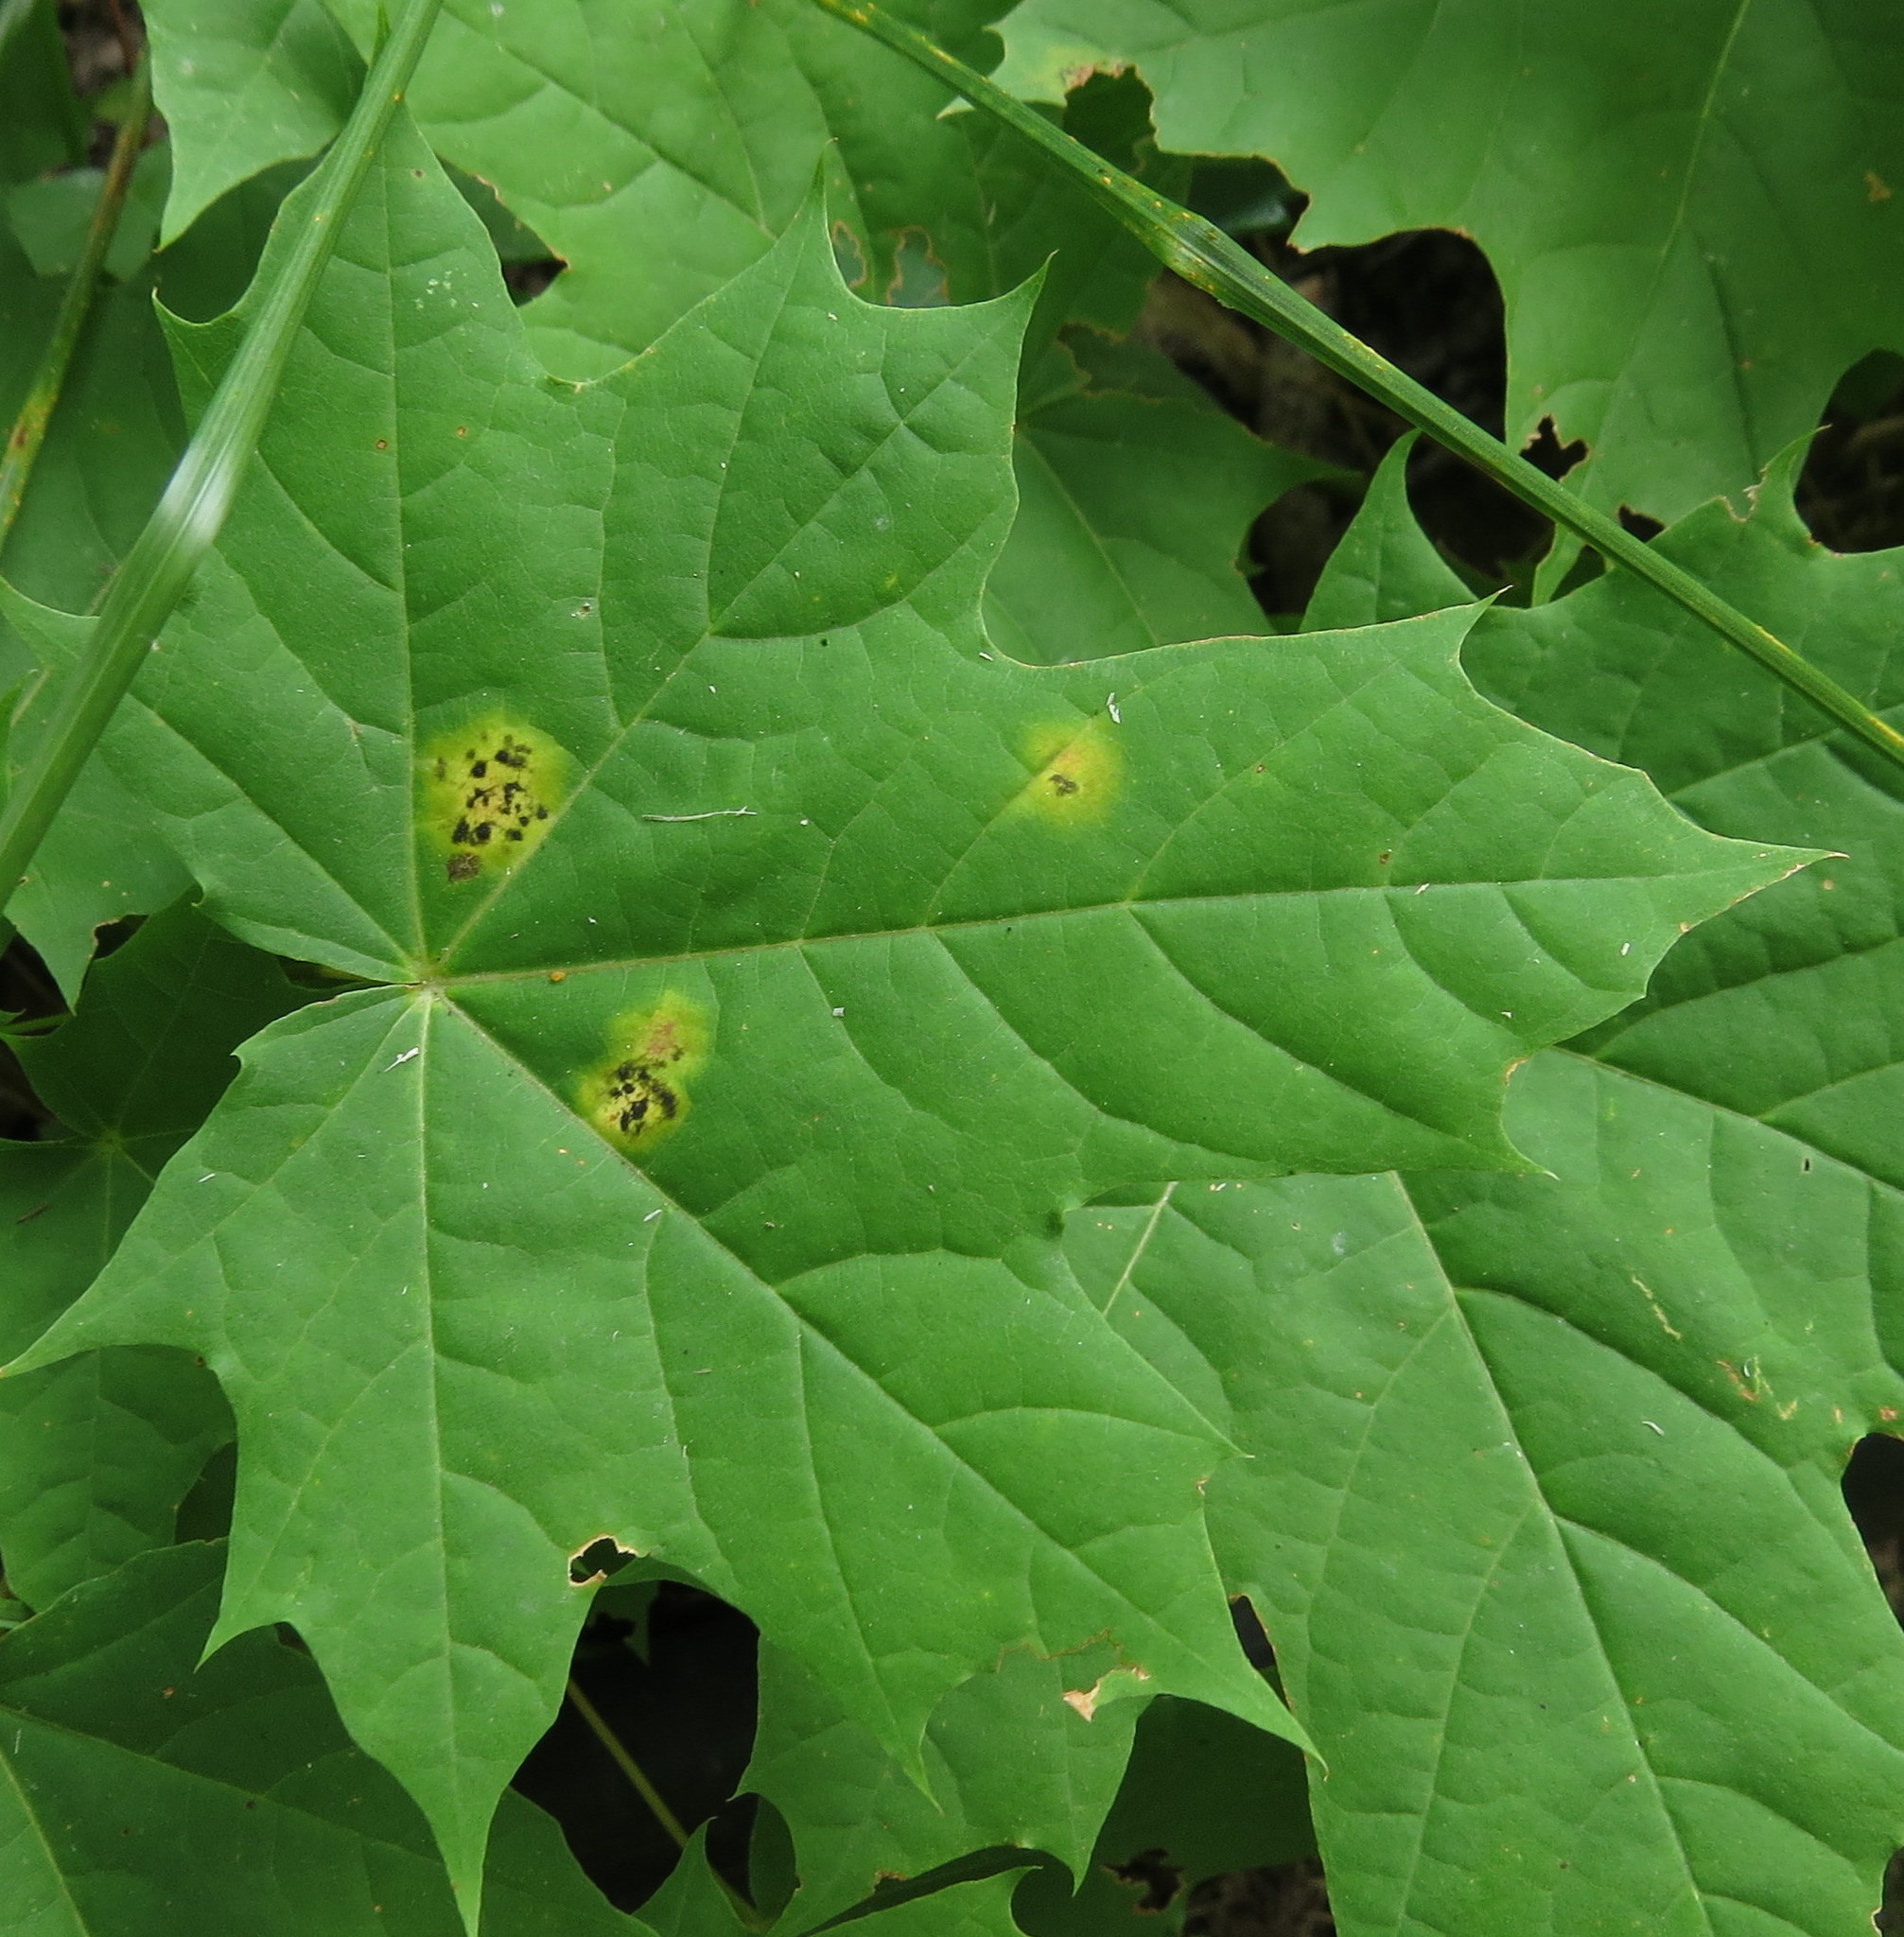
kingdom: Fungi
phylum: Ascomycota
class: Leotiomycetes
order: Rhytismatales
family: Rhytismataceae
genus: Rhytisma
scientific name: Rhytisma acerinum
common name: European tar spot
